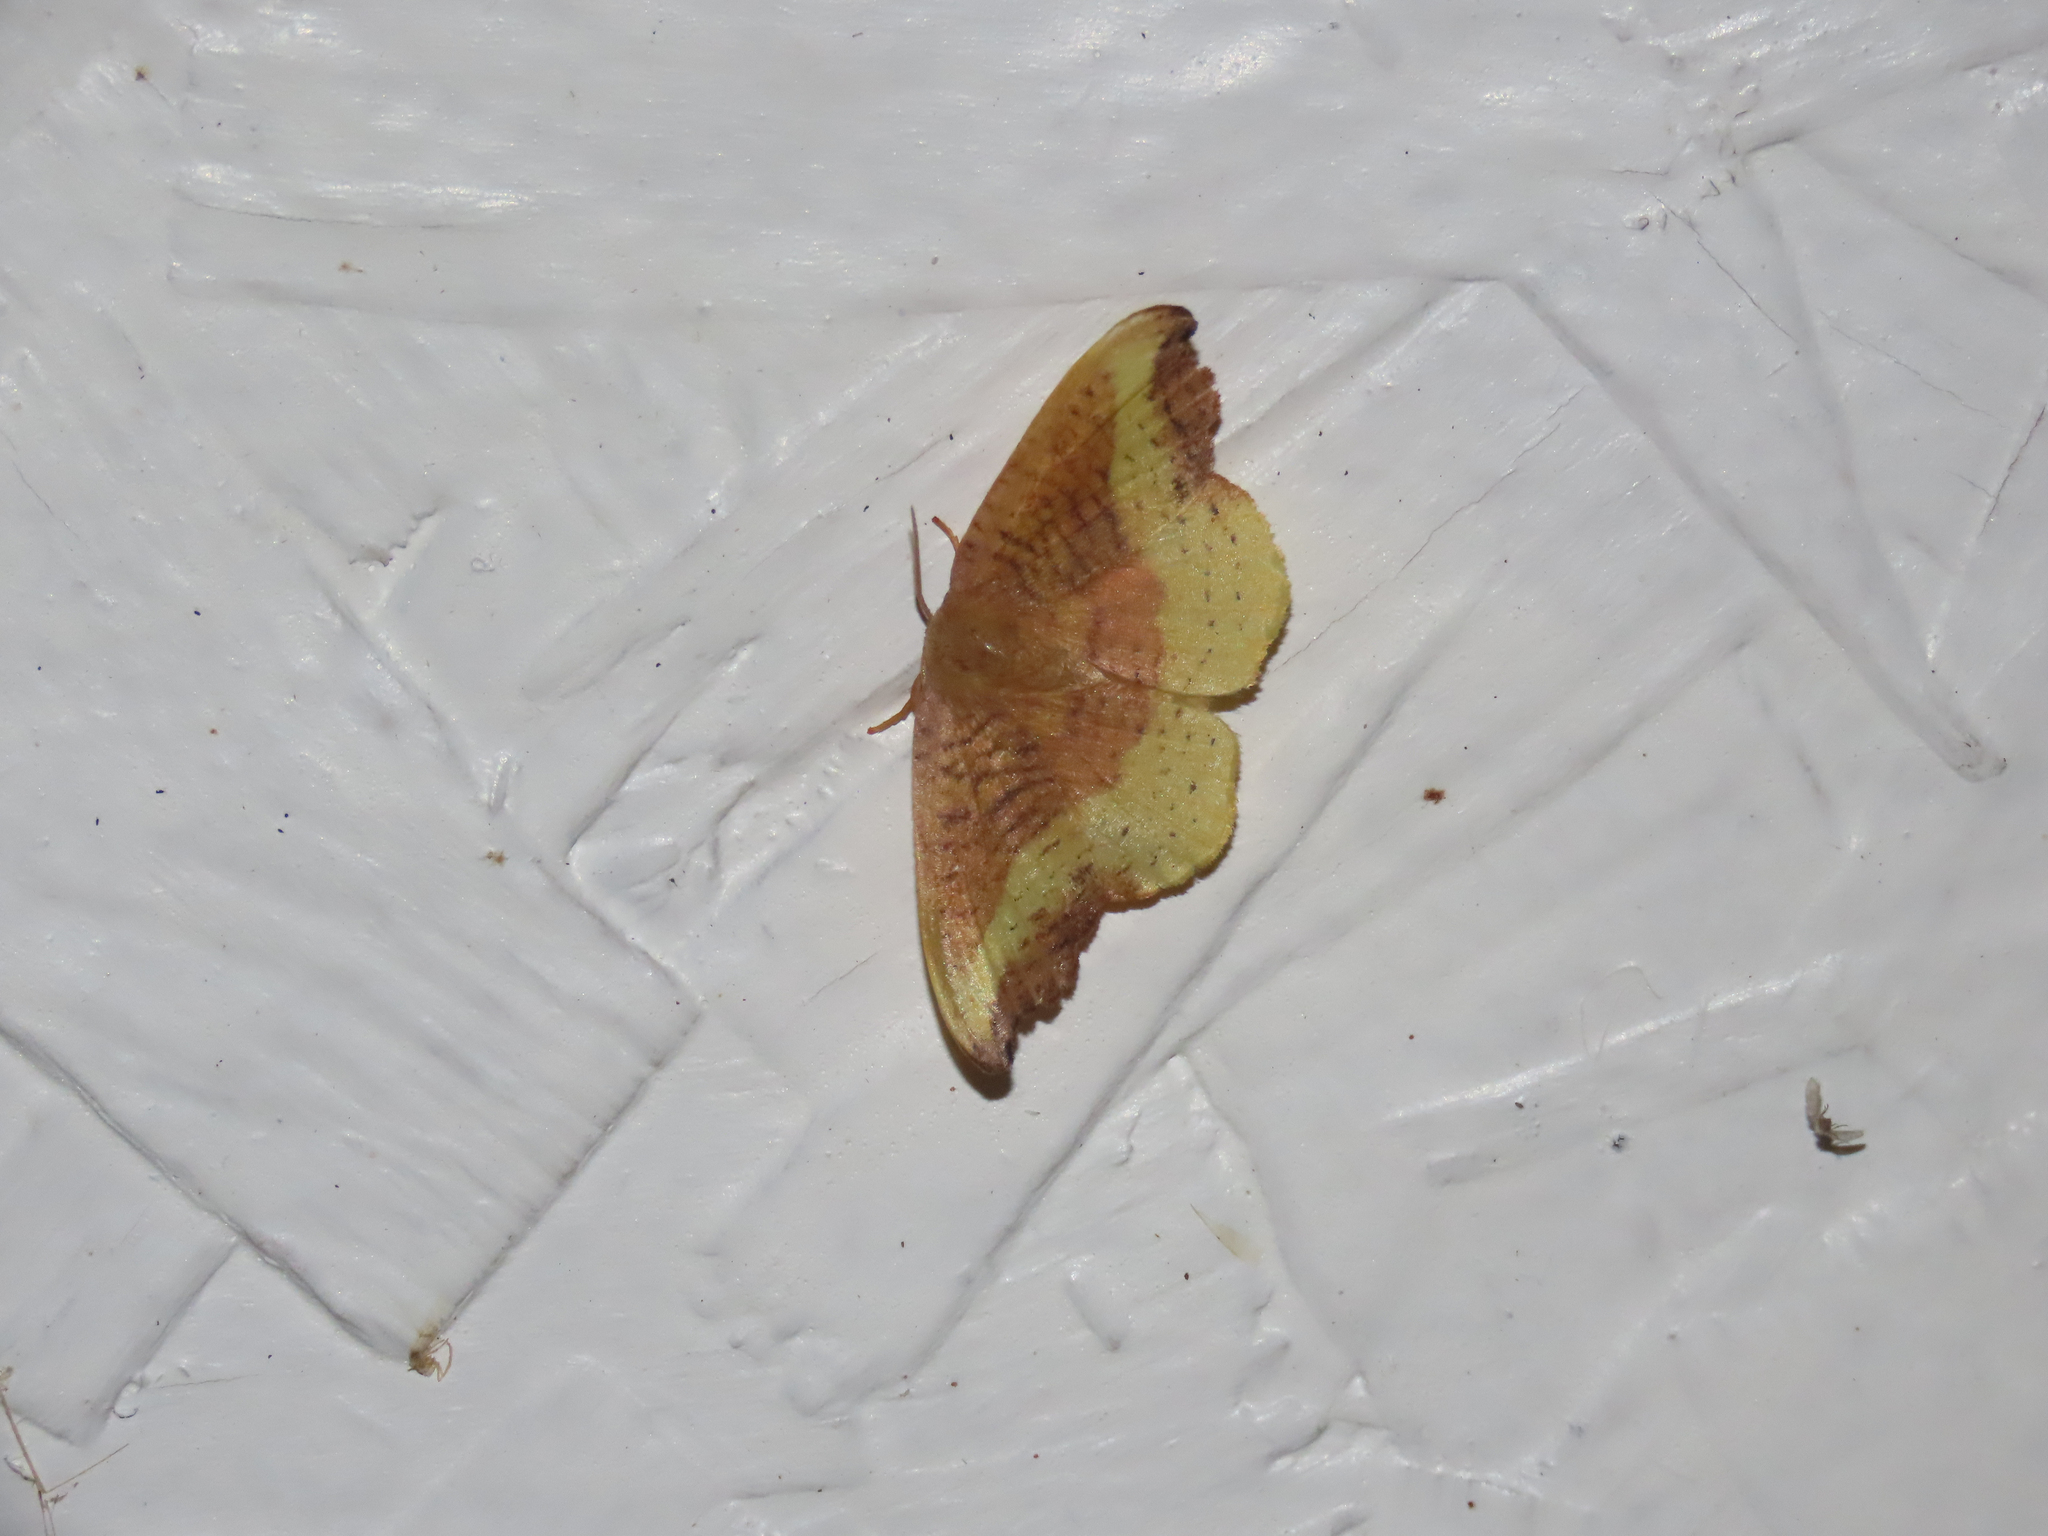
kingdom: Animalia
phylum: Arthropoda
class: Insecta
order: Lepidoptera
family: Drepanidae
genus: Oreta
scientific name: Oreta rosea
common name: Rose hooktip
